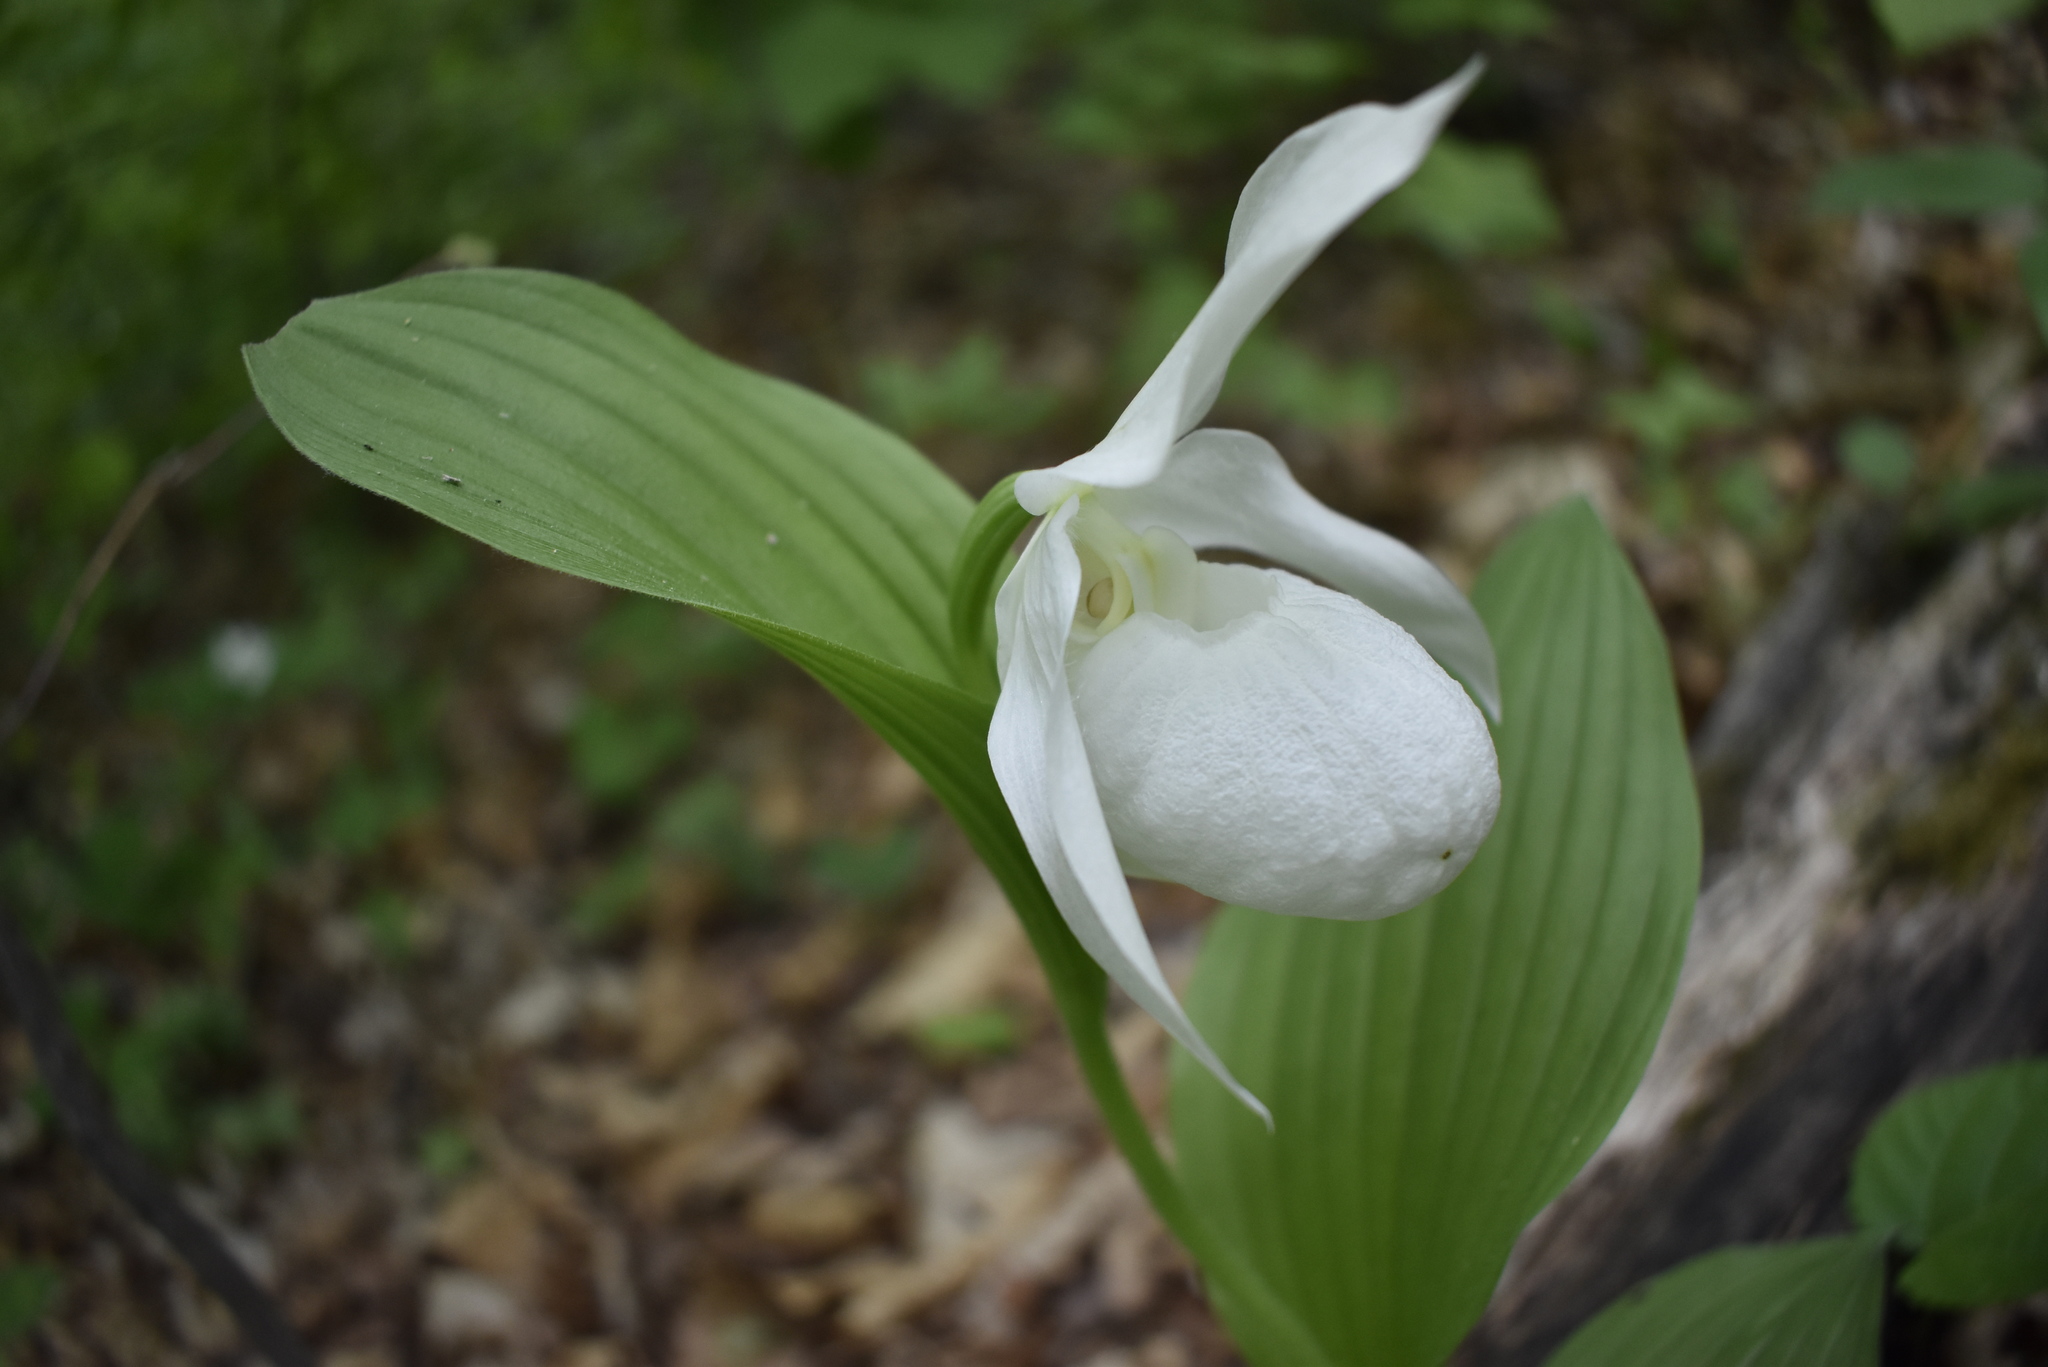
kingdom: Plantae
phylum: Tracheophyta
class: Liliopsida
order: Asparagales
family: Orchidaceae
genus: Cypripedium
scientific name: Cypripedium macranthos
